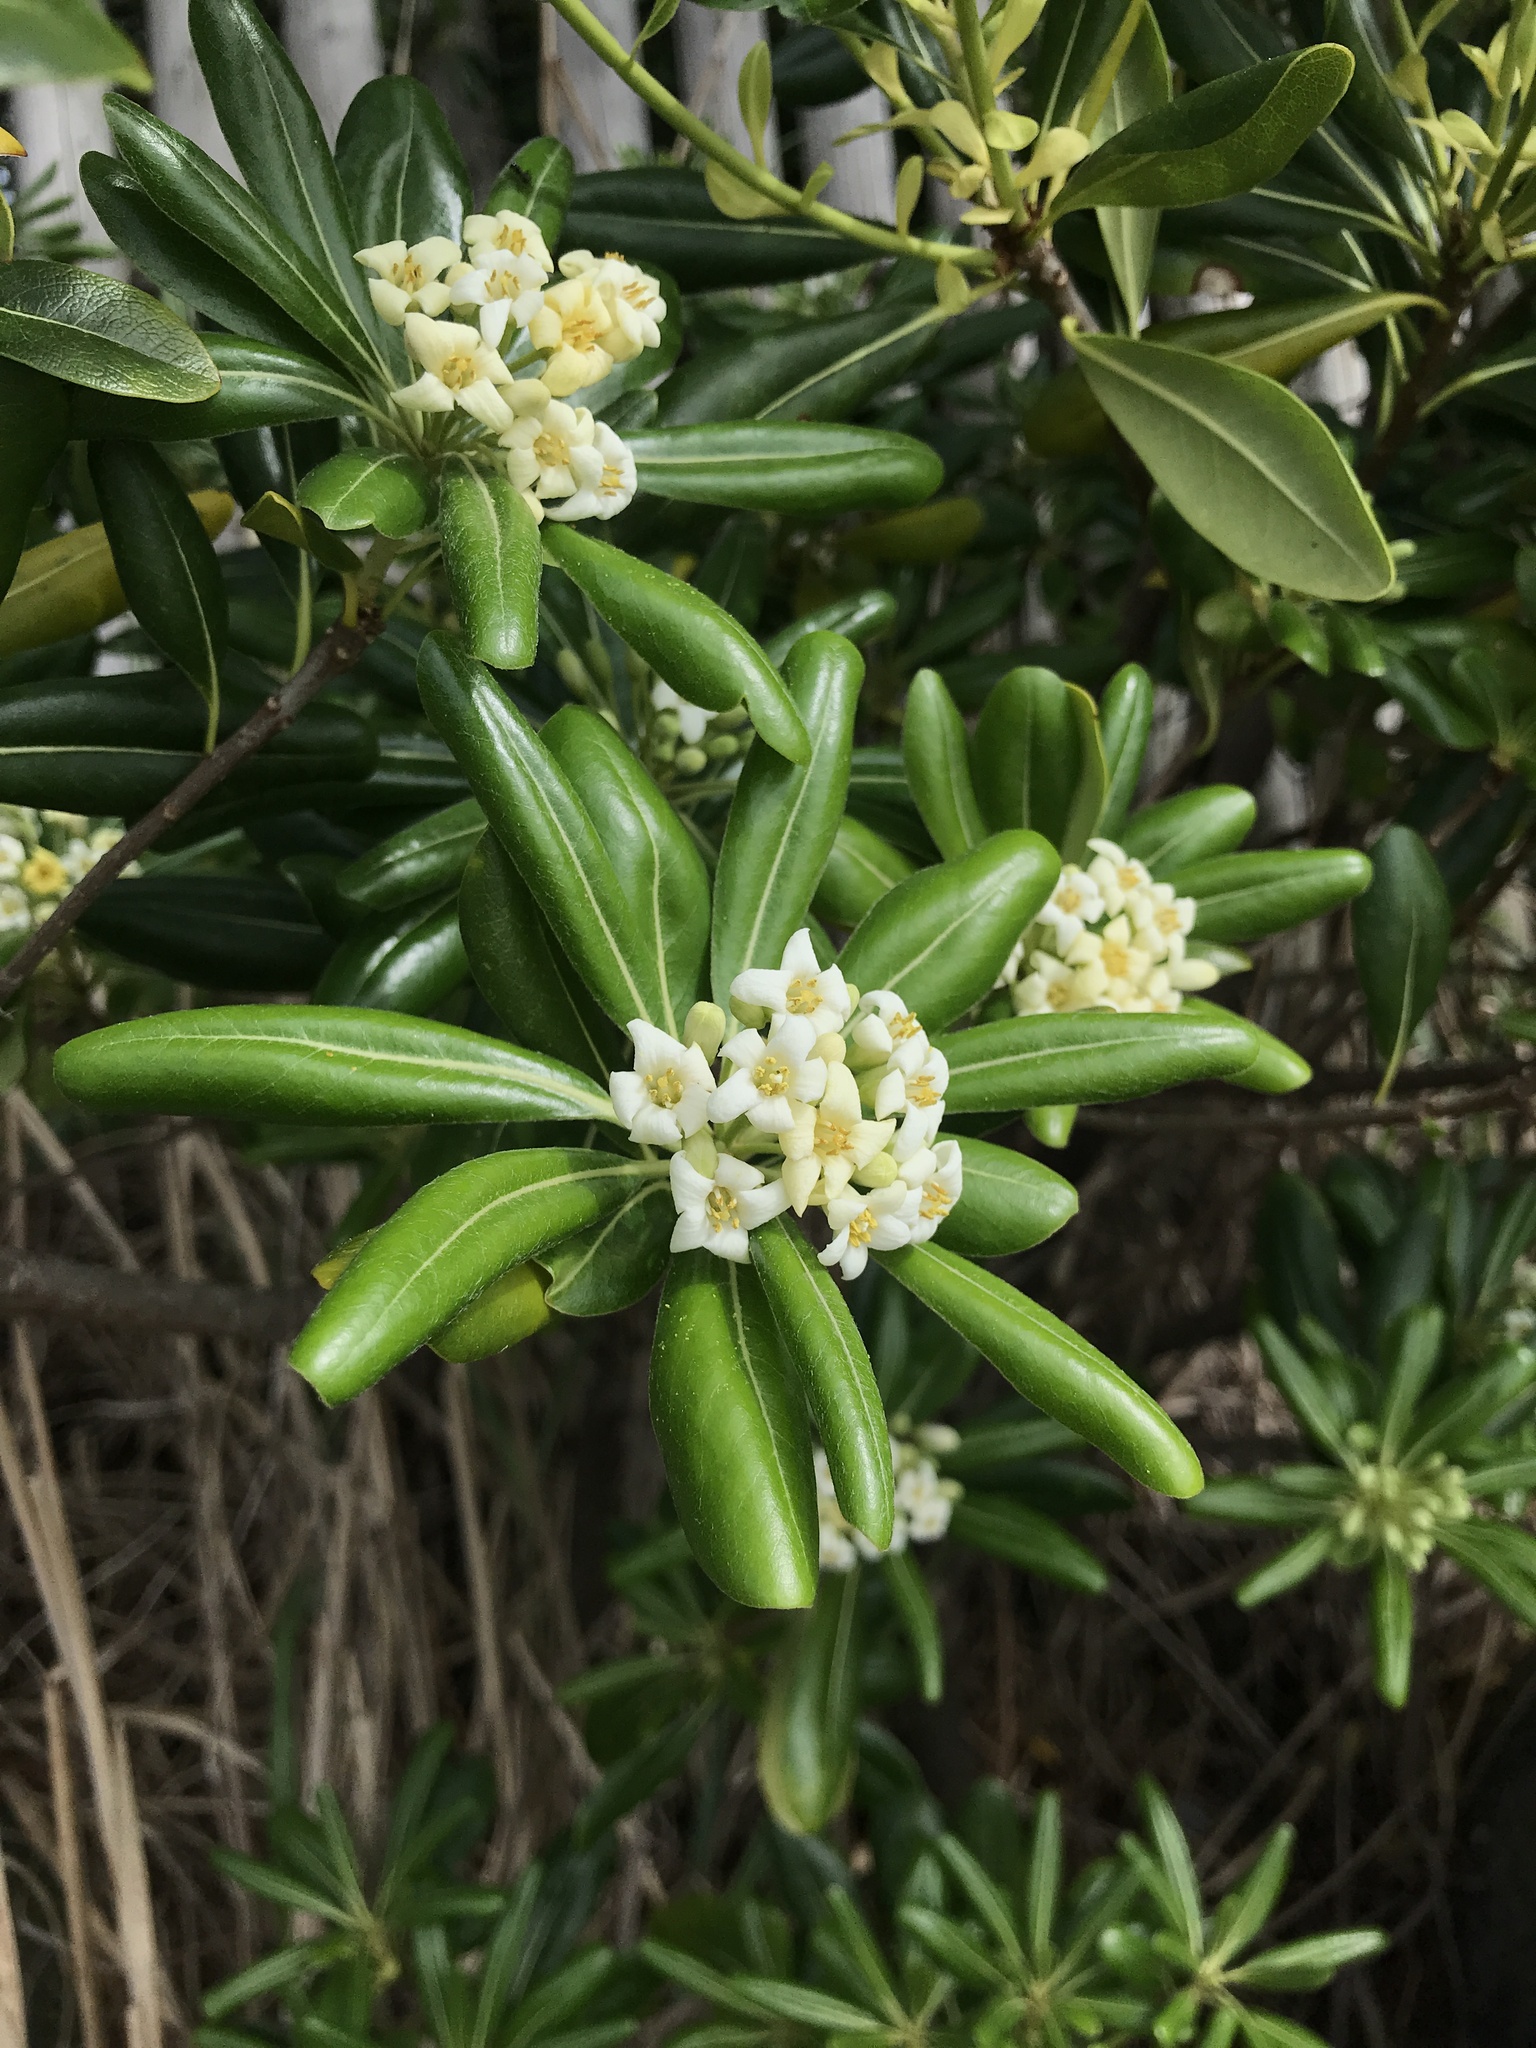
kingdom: Plantae
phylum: Tracheophyta
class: Magnoliopsida
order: Apiales
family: Pittosporaceae
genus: Pittosporum
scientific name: Pittosporum tobira
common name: Japanese cheesewood
